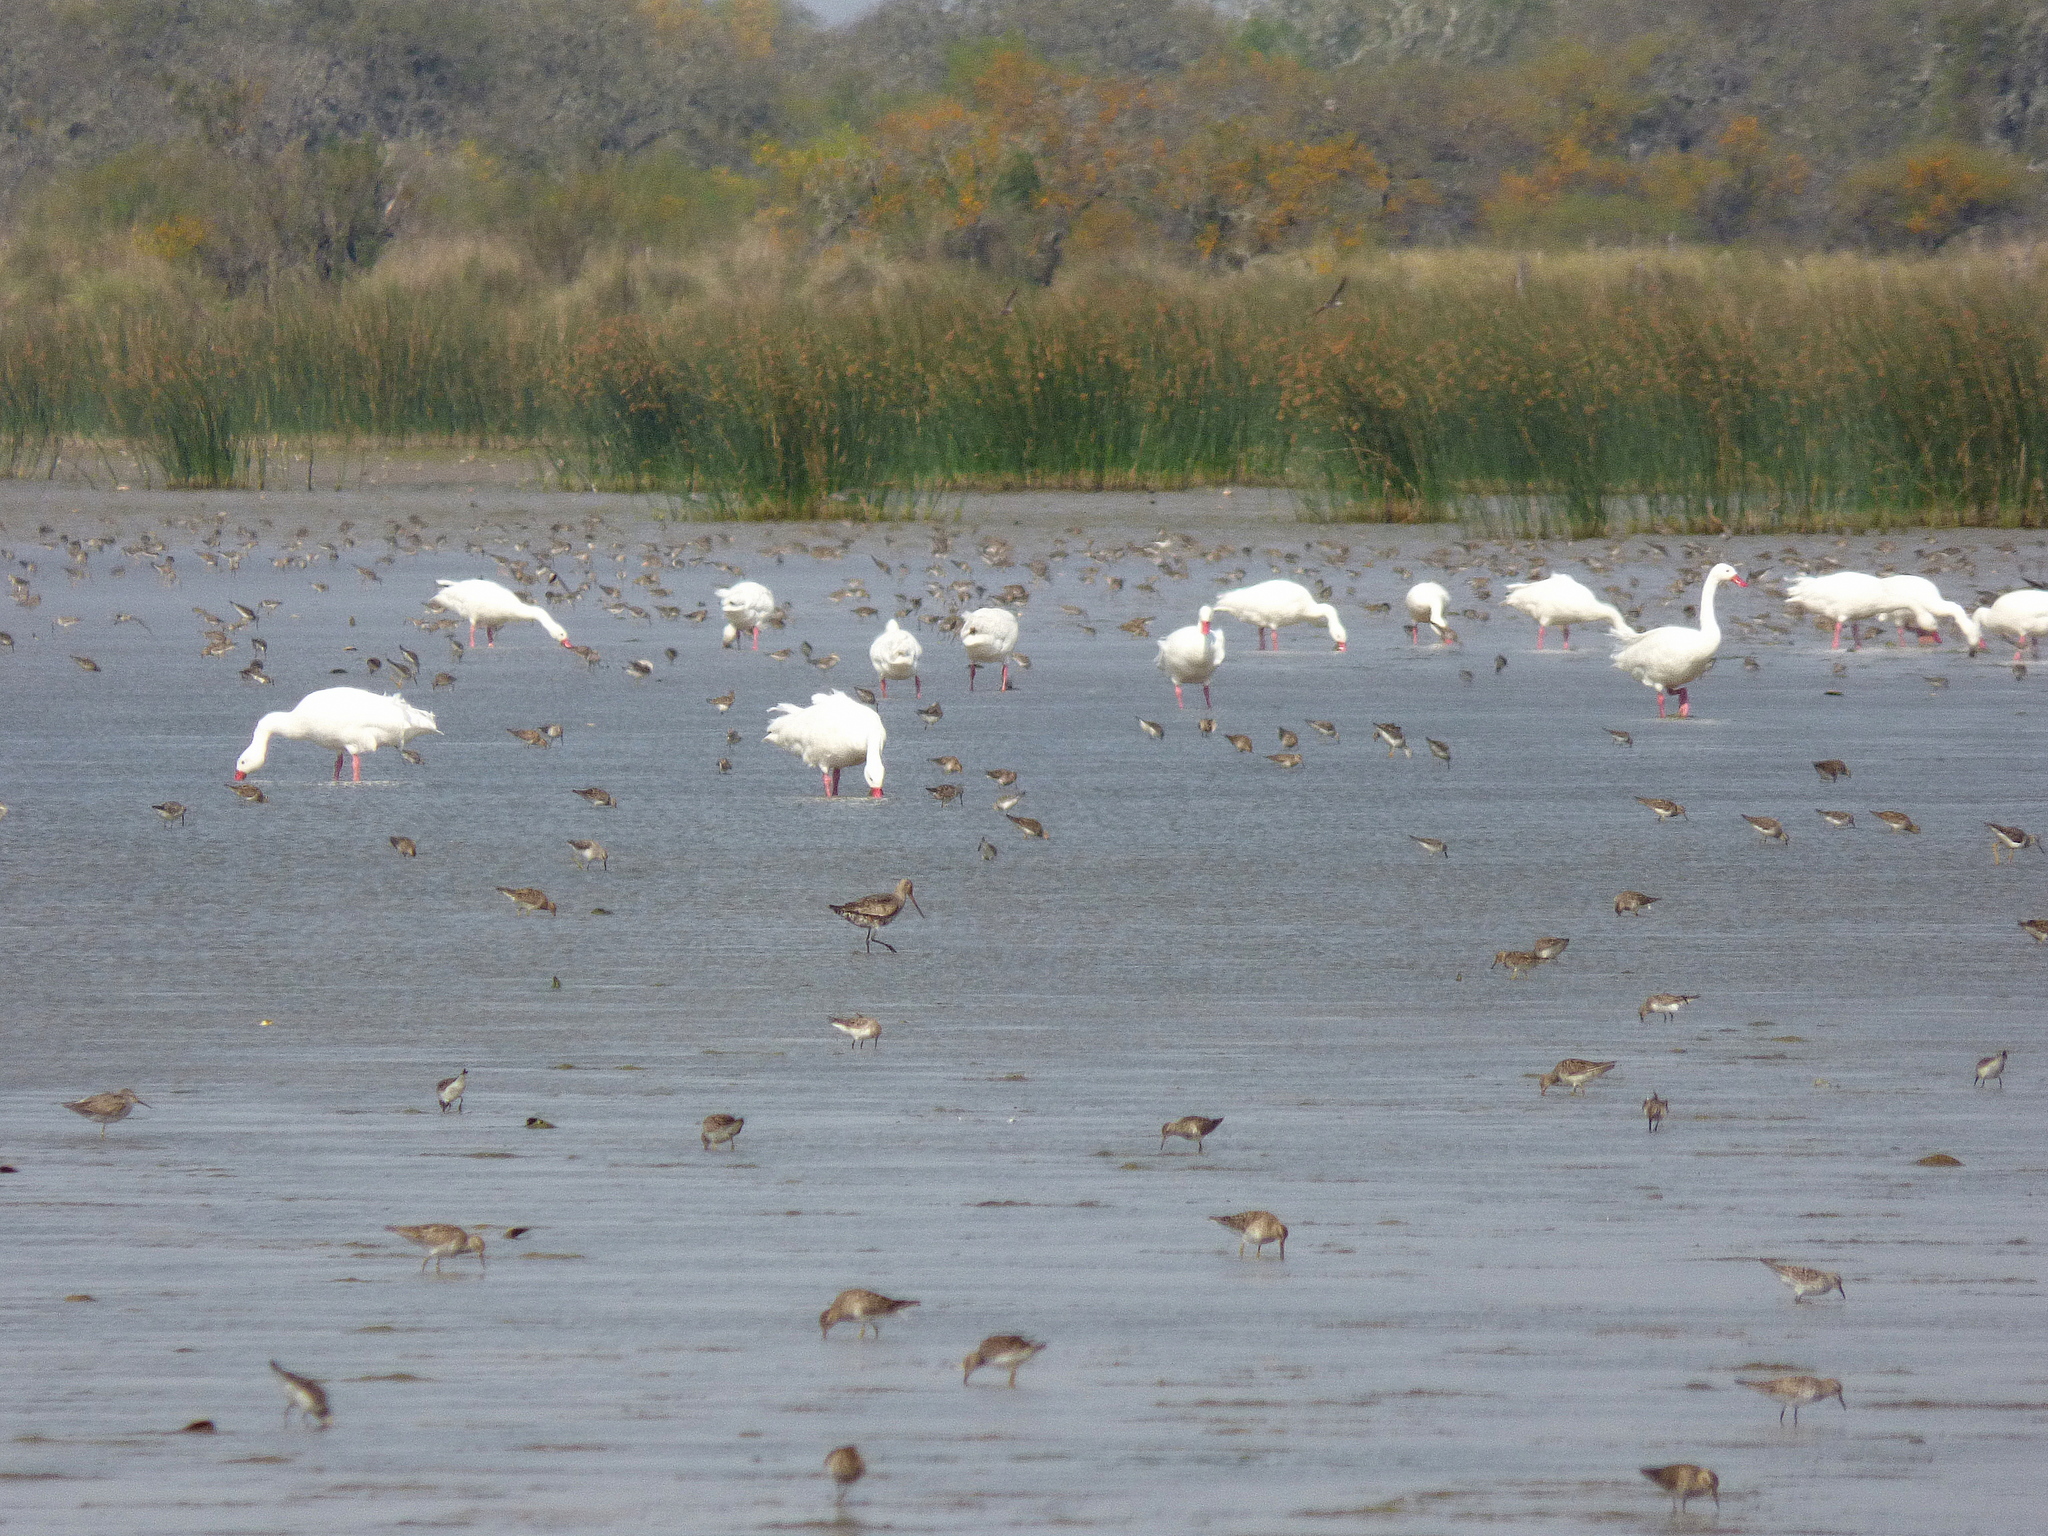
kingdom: Animalia
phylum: Chordata
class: Aves
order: Anseriformes
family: Anatidae
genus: Coscoroba
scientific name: Coscoroba coscoroba
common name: Coscoroba swan
